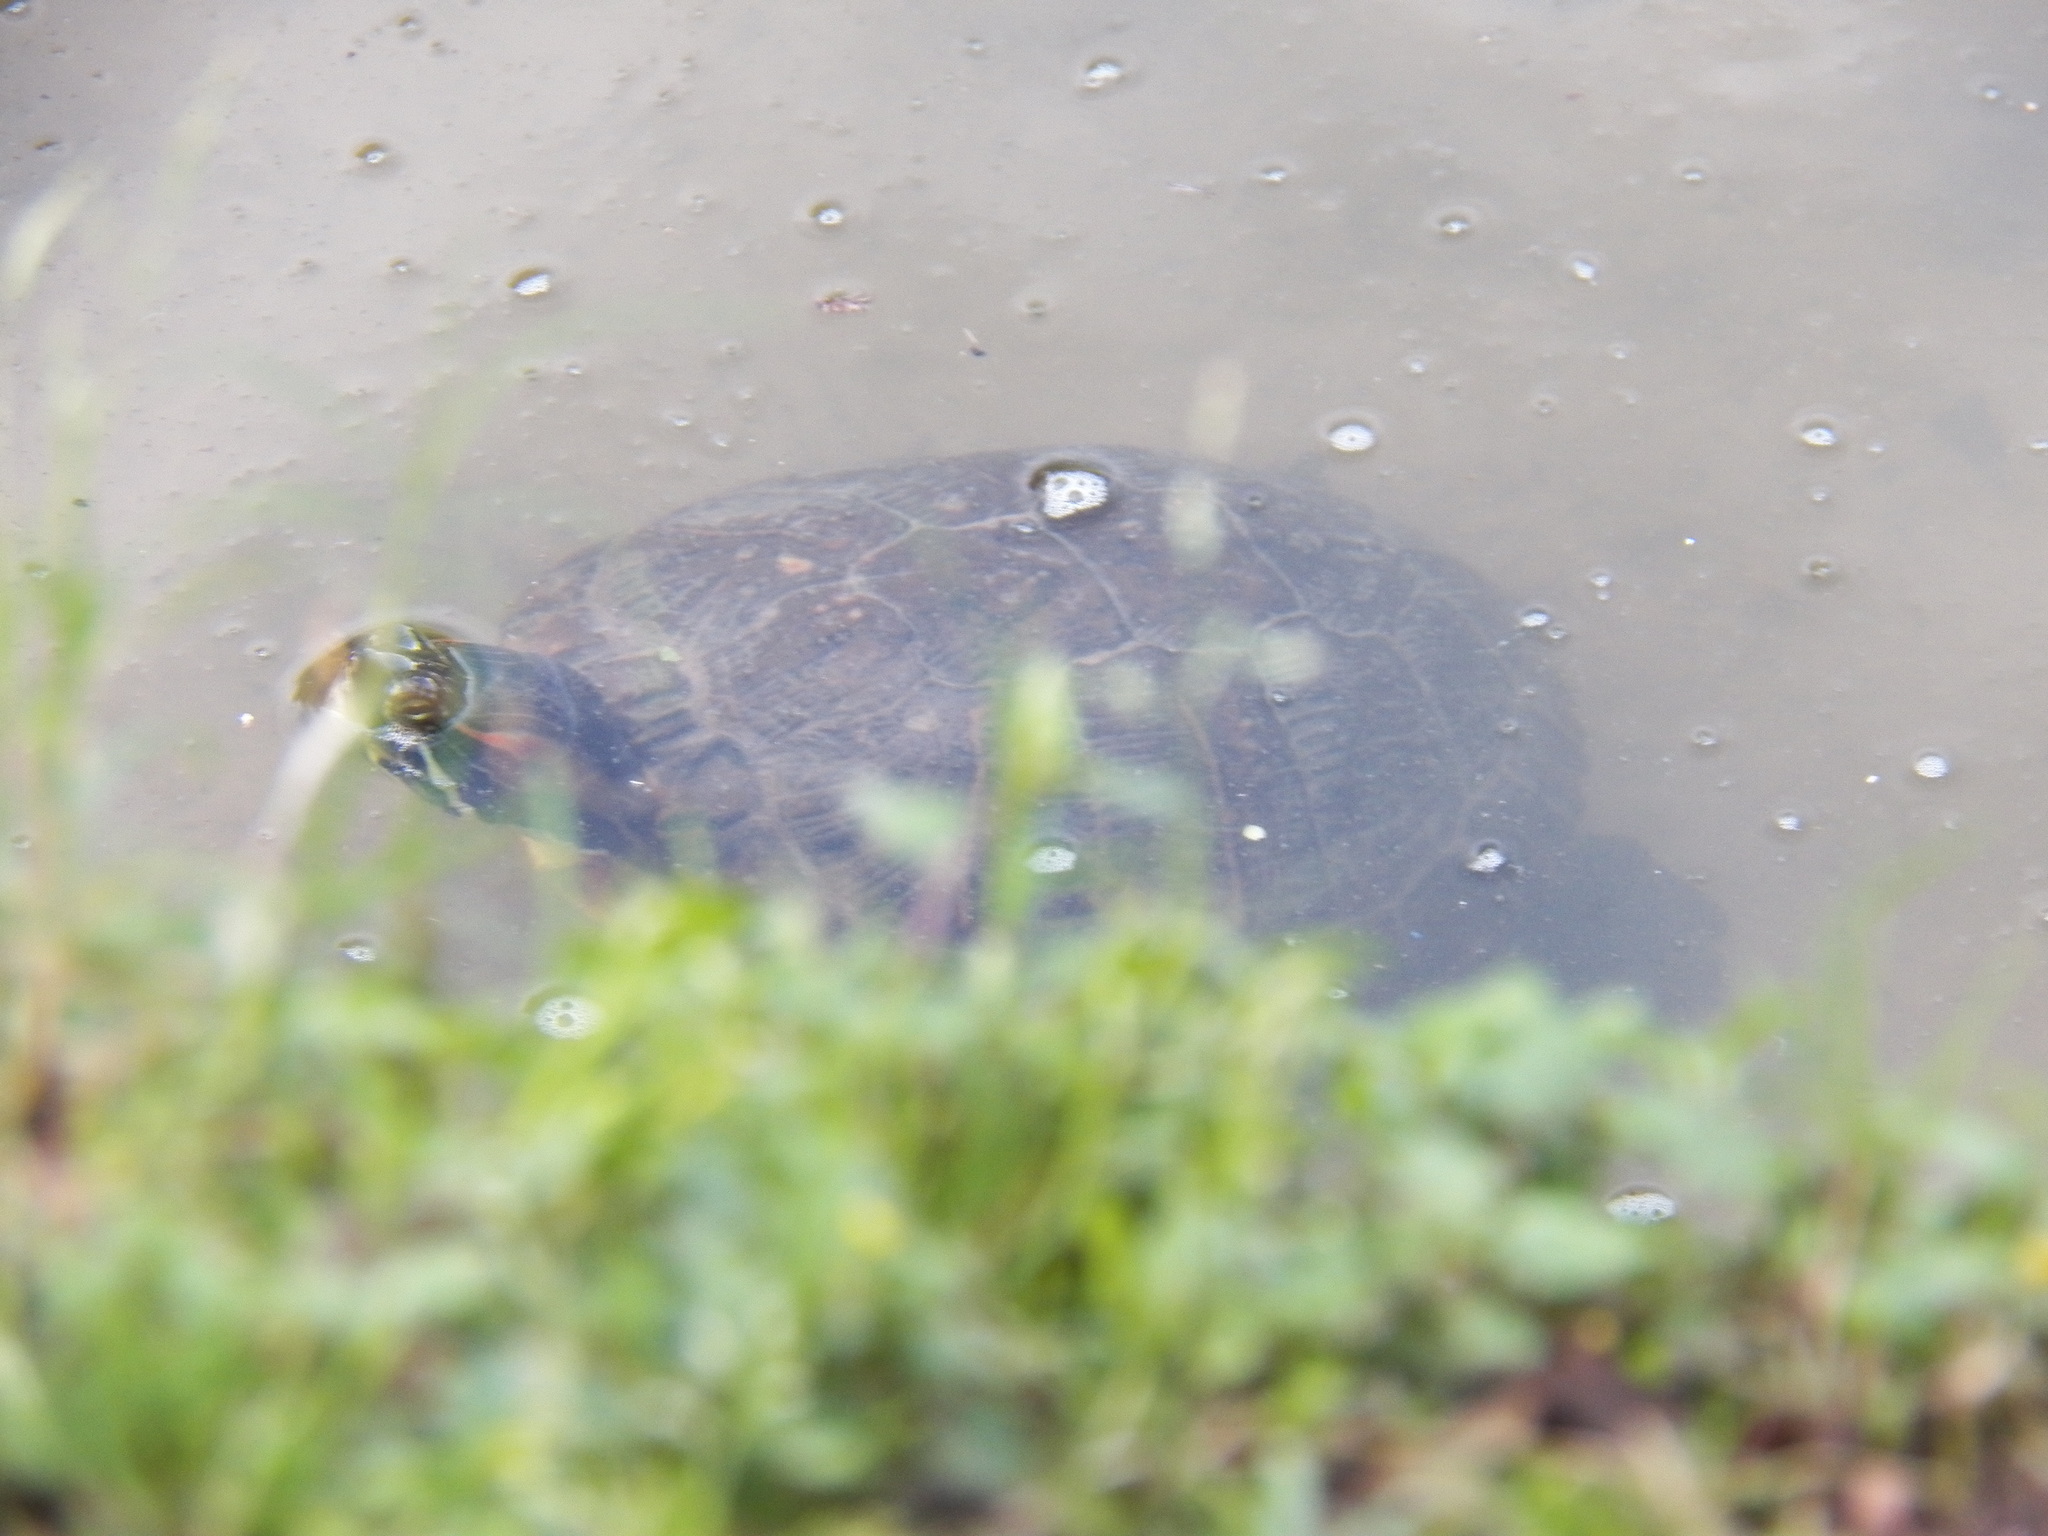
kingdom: Animalia
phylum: Chordata
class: Testudines
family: Emydidae
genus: Trachemys
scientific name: Trachemys scripta
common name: Slider
